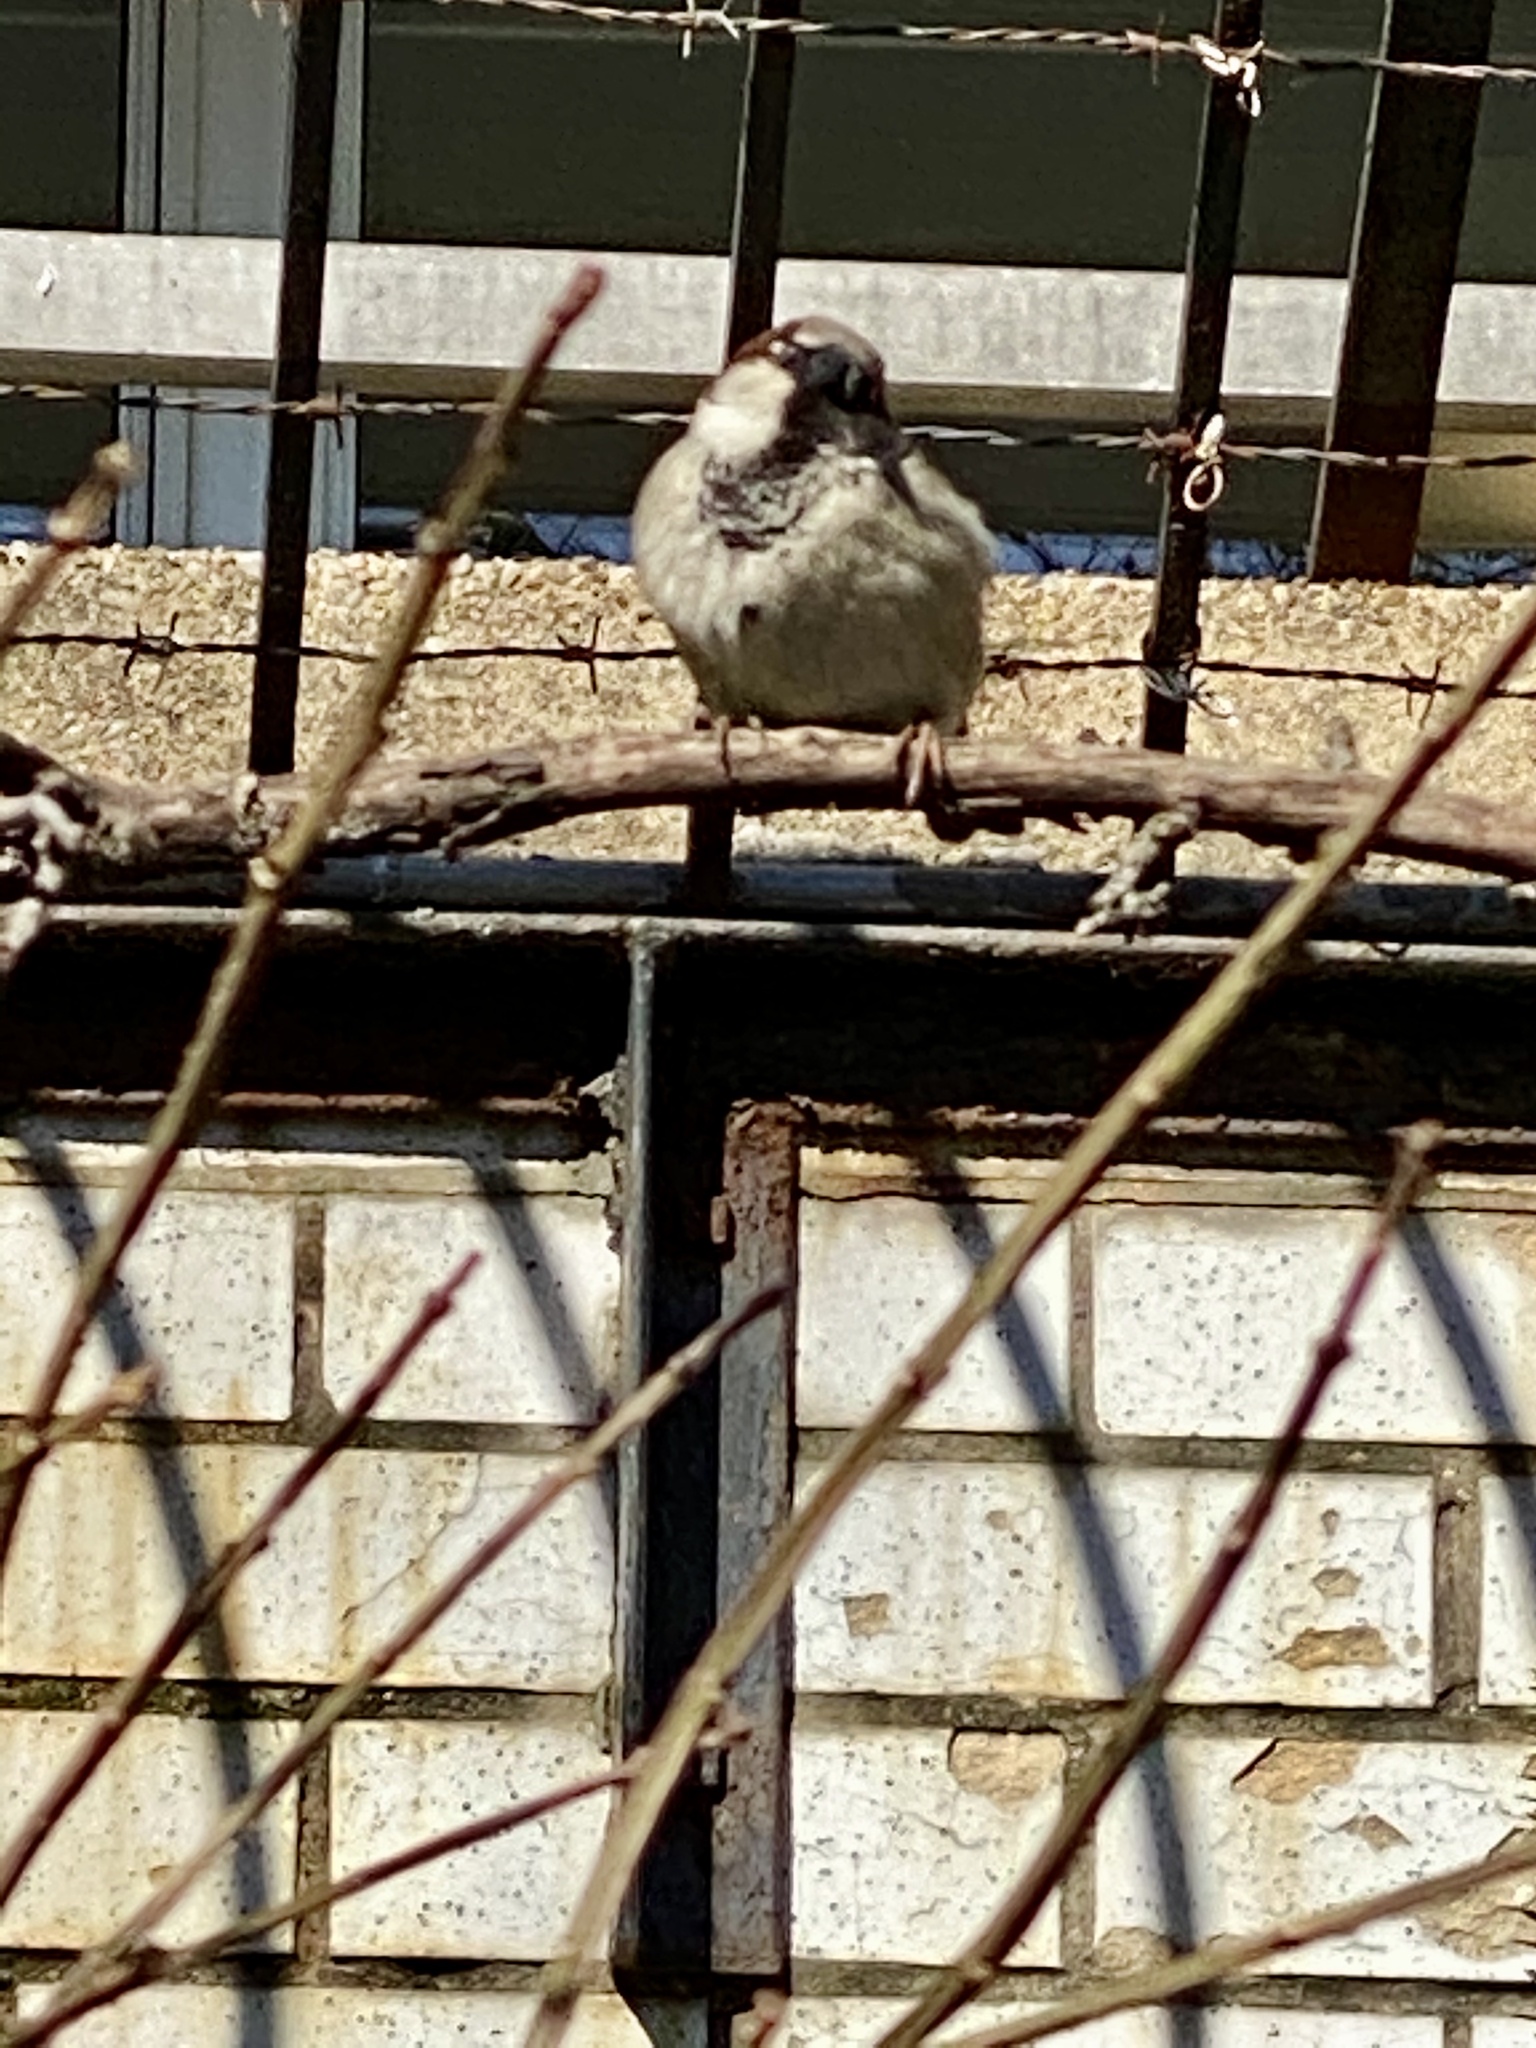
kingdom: Animalia
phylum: Chordata
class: Aves
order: Passeriformes
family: Passeridae
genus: Passer
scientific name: Passer domesticus
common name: House sparrow
